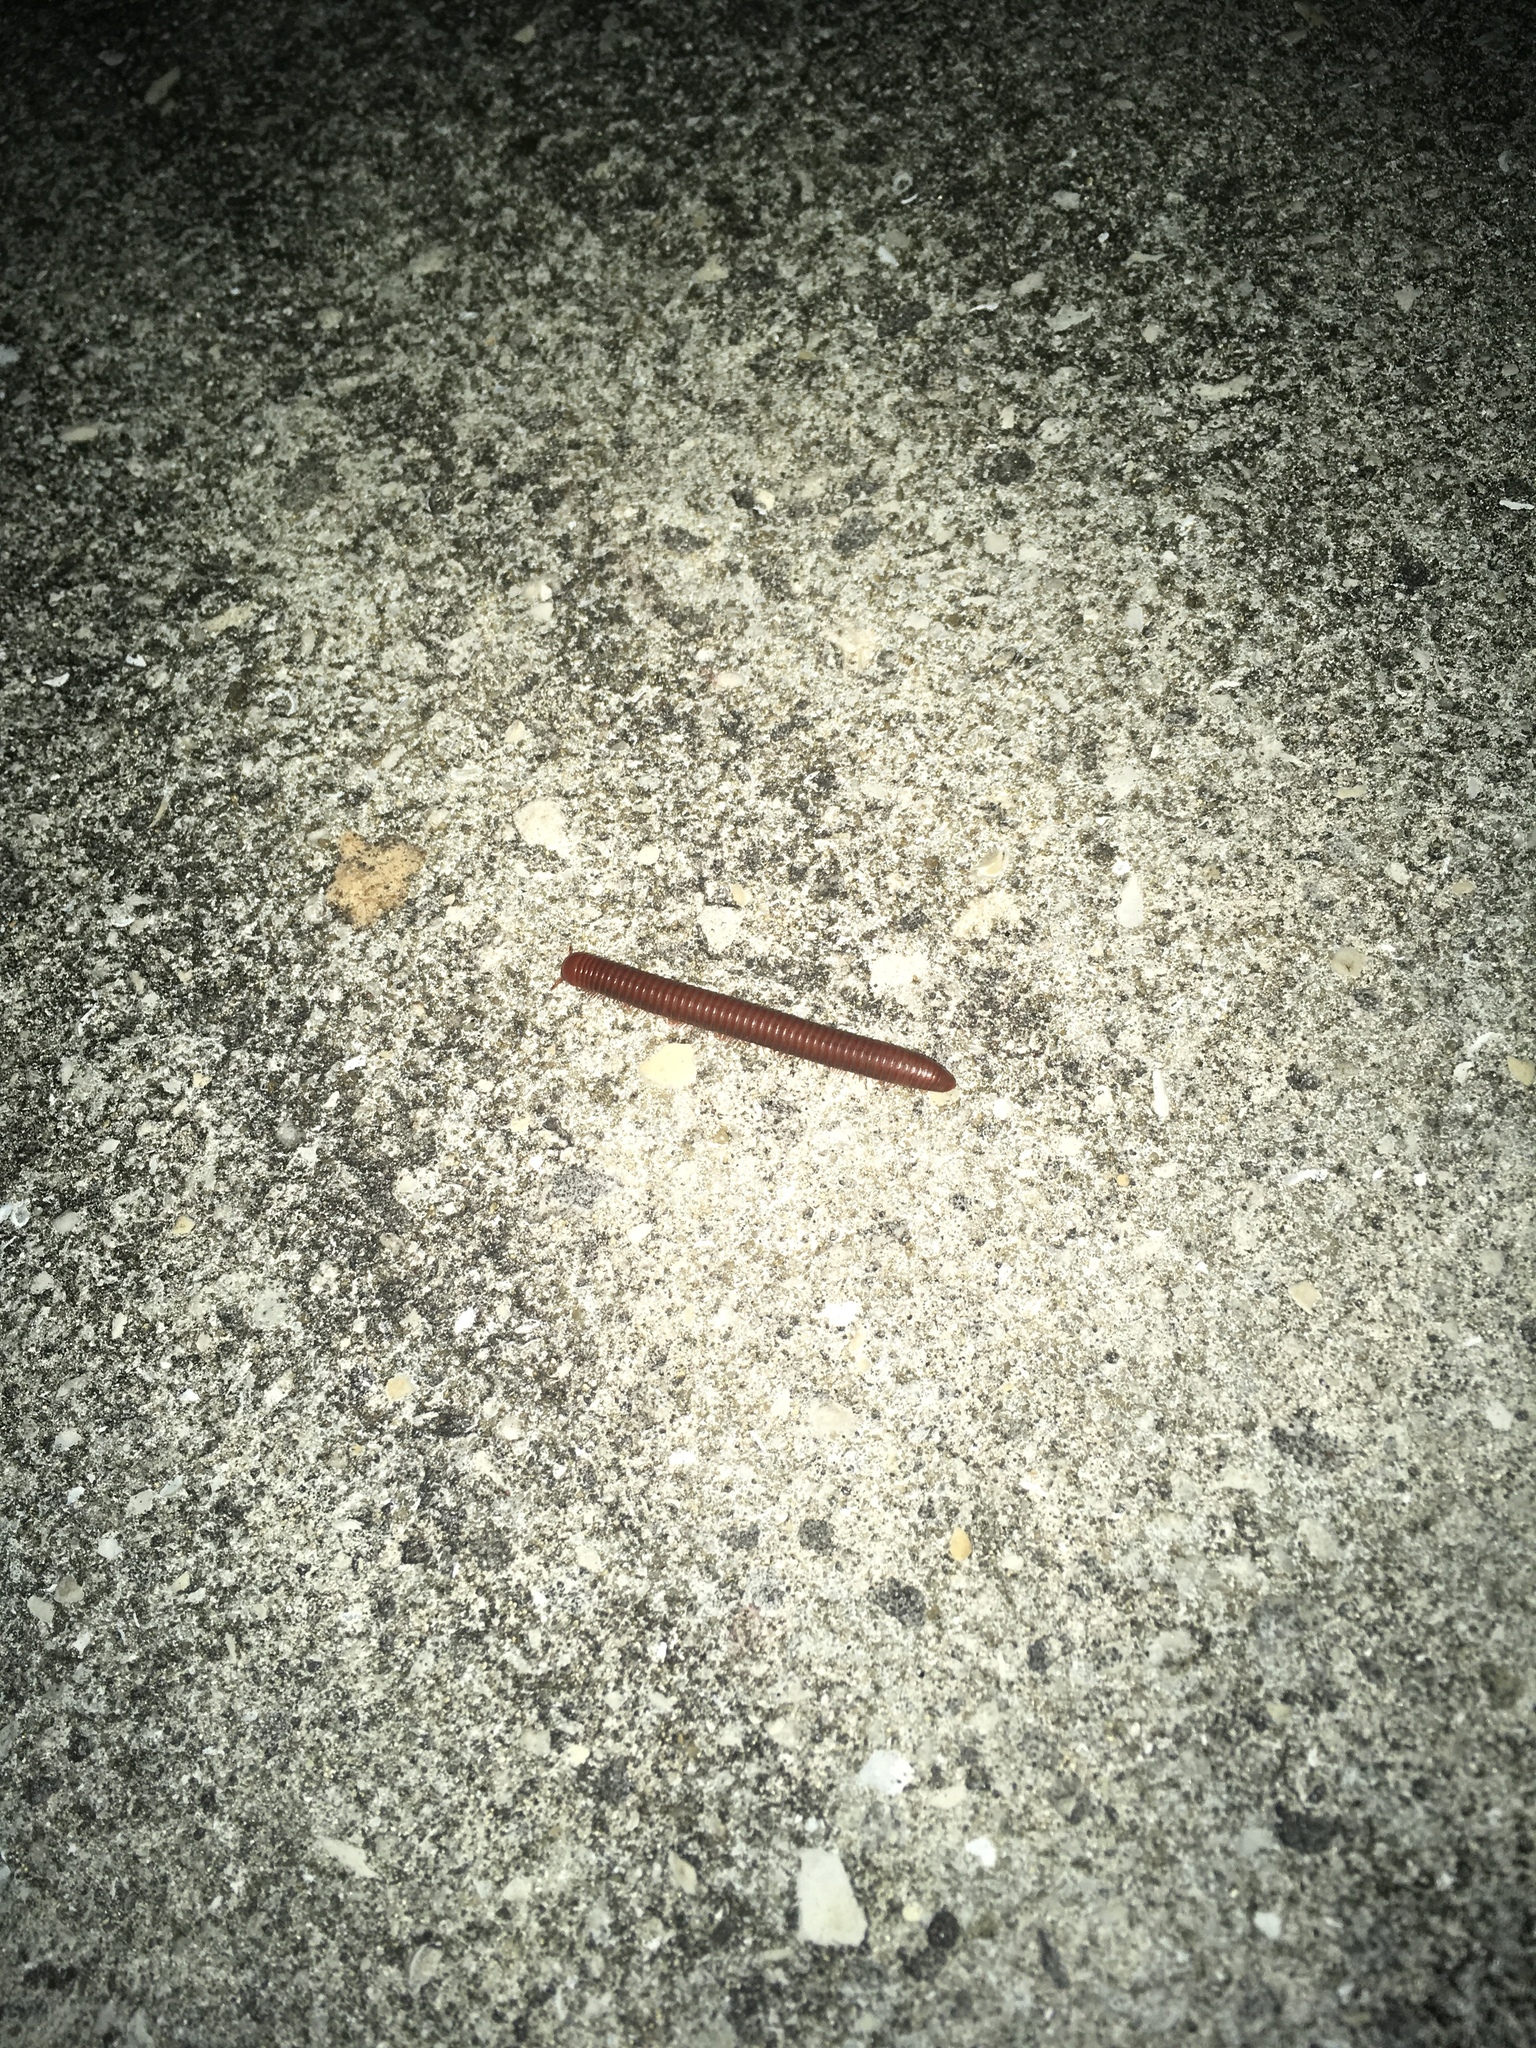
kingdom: Animalia
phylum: Arthropoda
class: Diplopoda
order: Spirobolida
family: Pachybolidae
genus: Trigoniulus
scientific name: Trigoniulus corallinus
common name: Millipede
